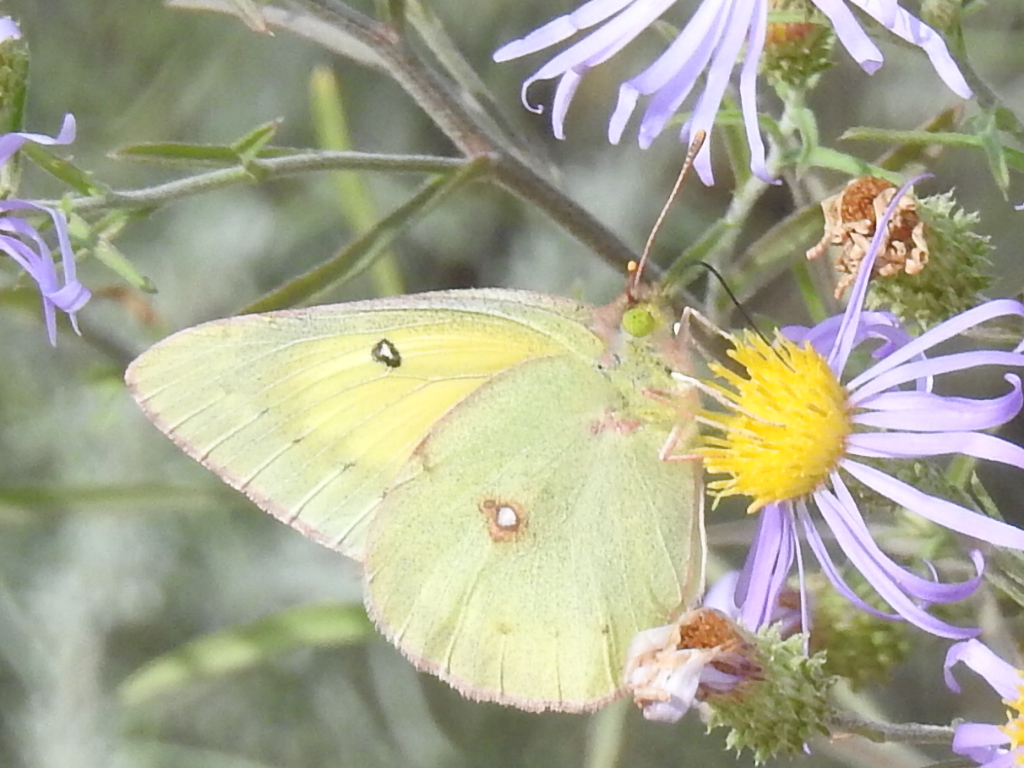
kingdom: Animalia
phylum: Arthropoda
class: Insecta
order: Lepidoptera
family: Pieridae
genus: Colias
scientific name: Colias eurytheme
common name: Alfalfa butterfly
